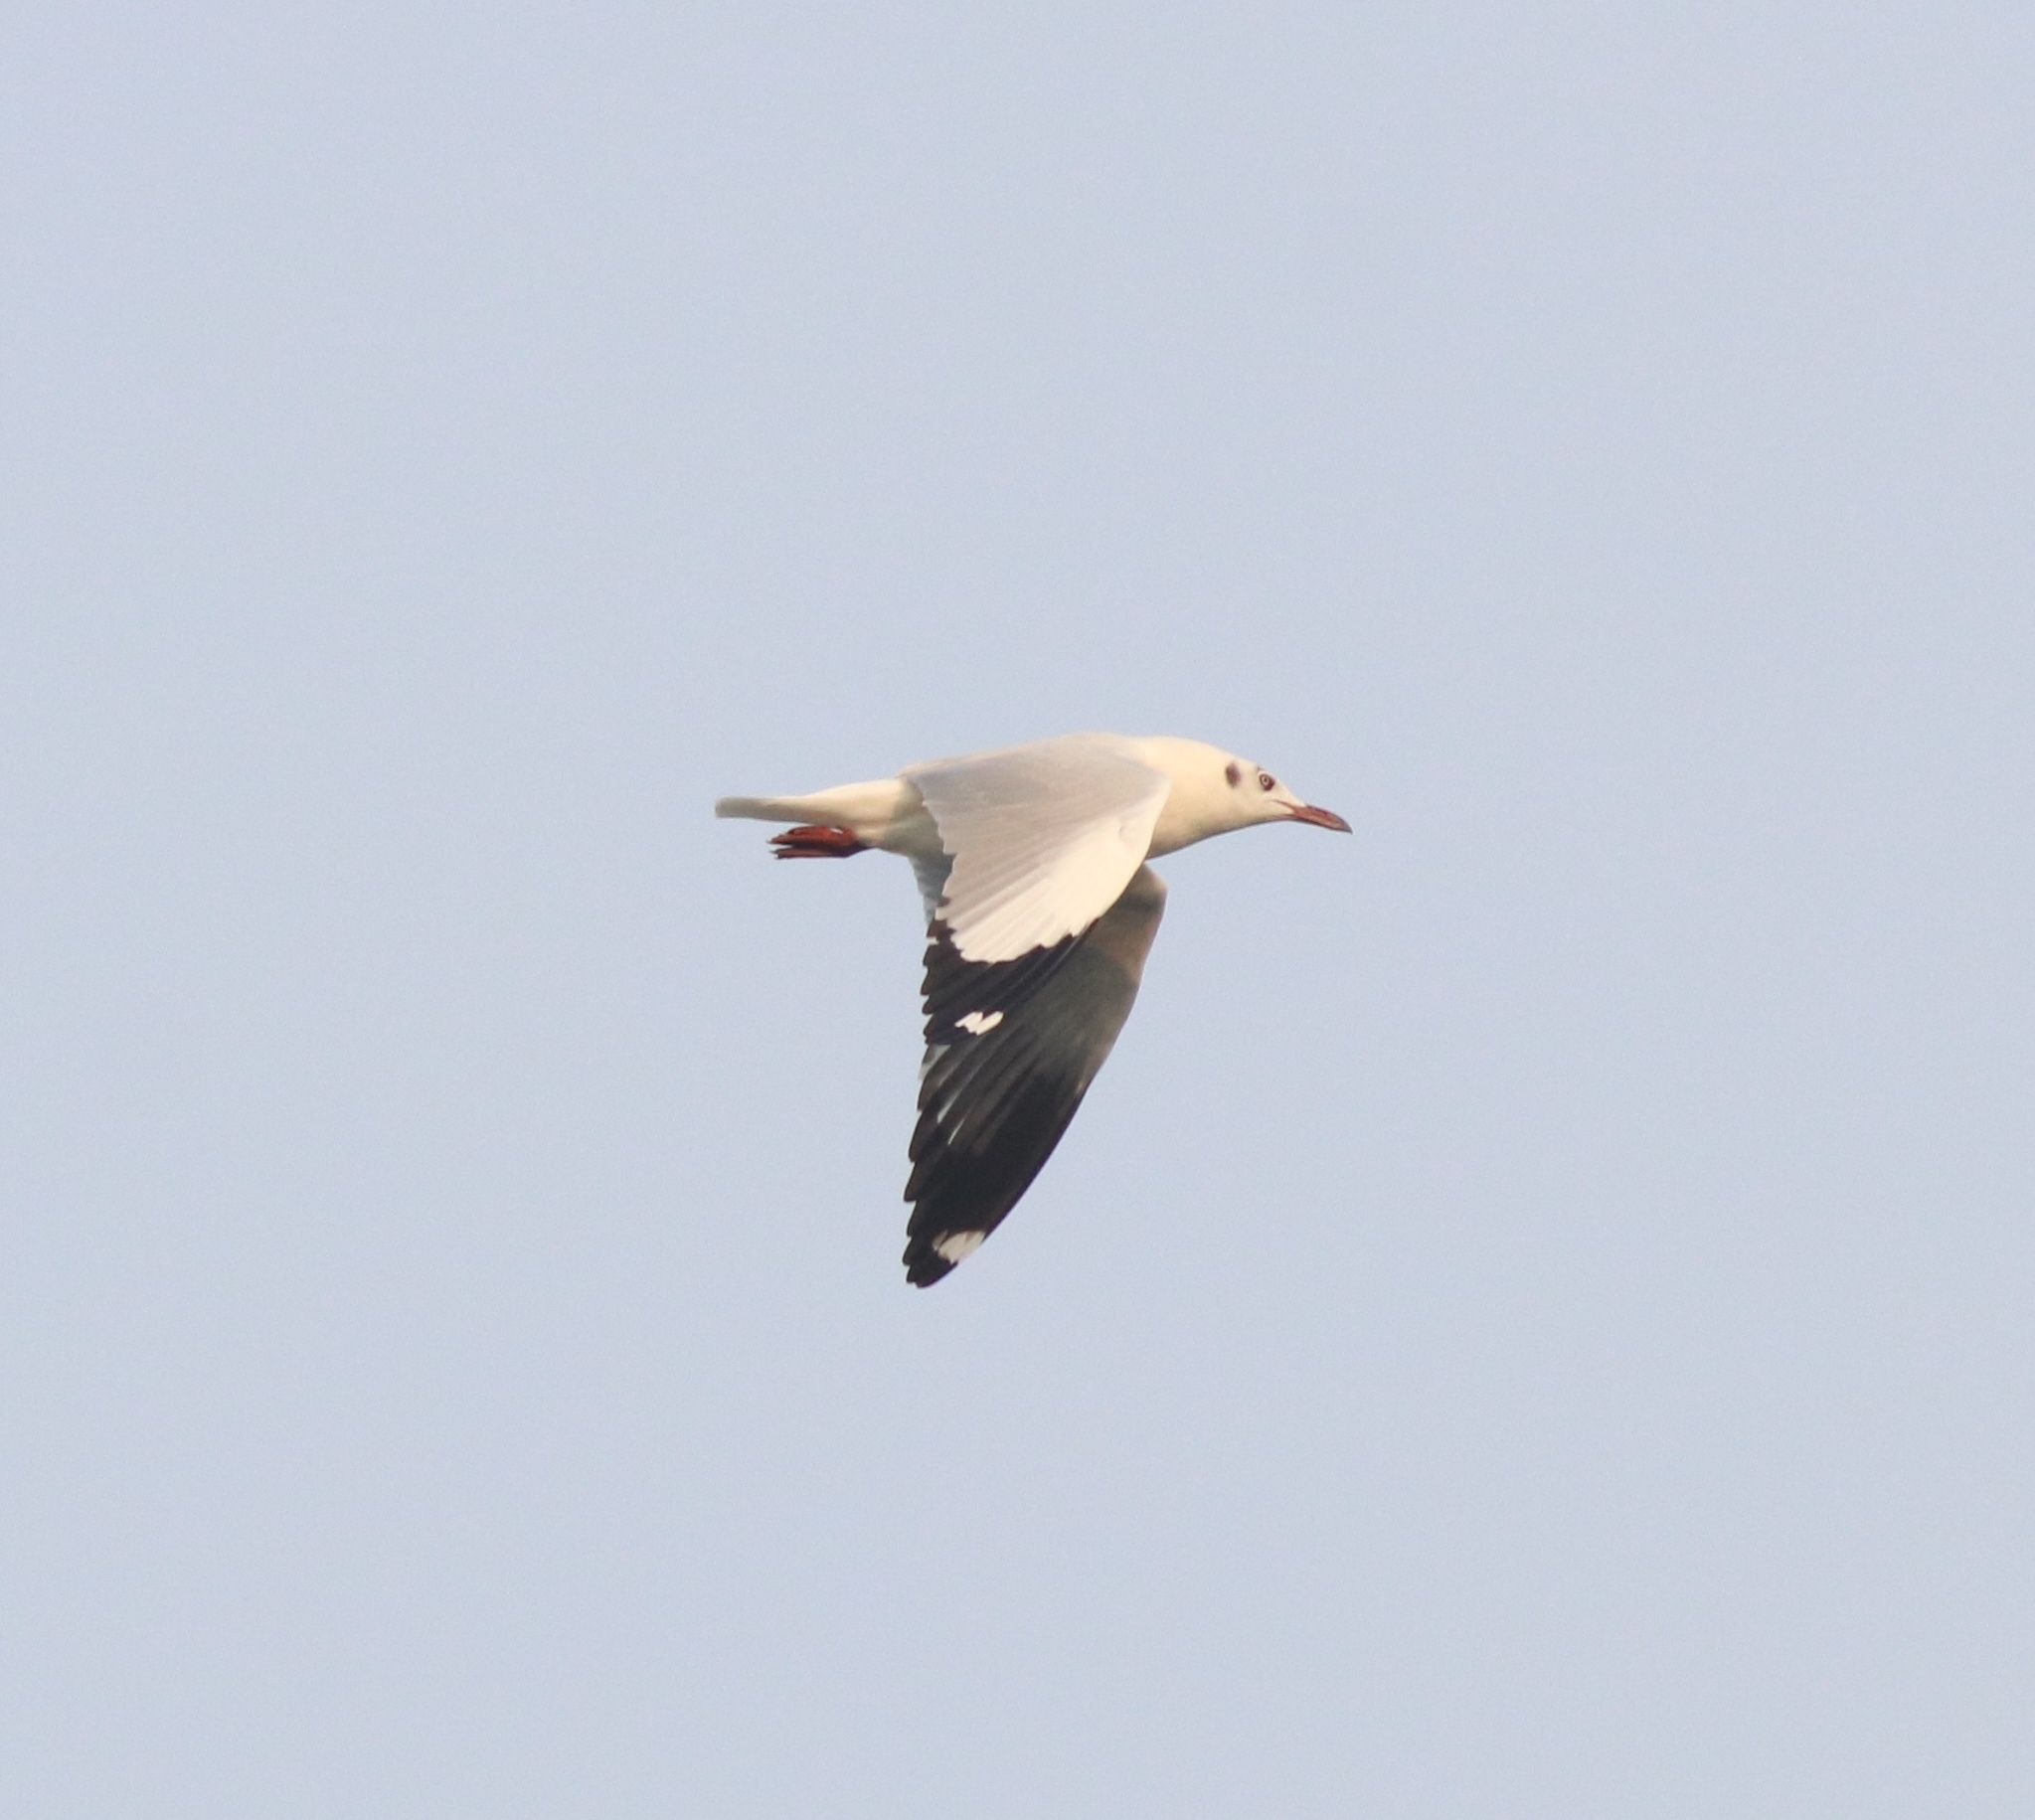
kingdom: Animalia
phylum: Chordata
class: Aves
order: Charadriiformes
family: Laridae
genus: Chroicocephalus
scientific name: Chroicocephalus brunnicephalus
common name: Brown-headed gull
